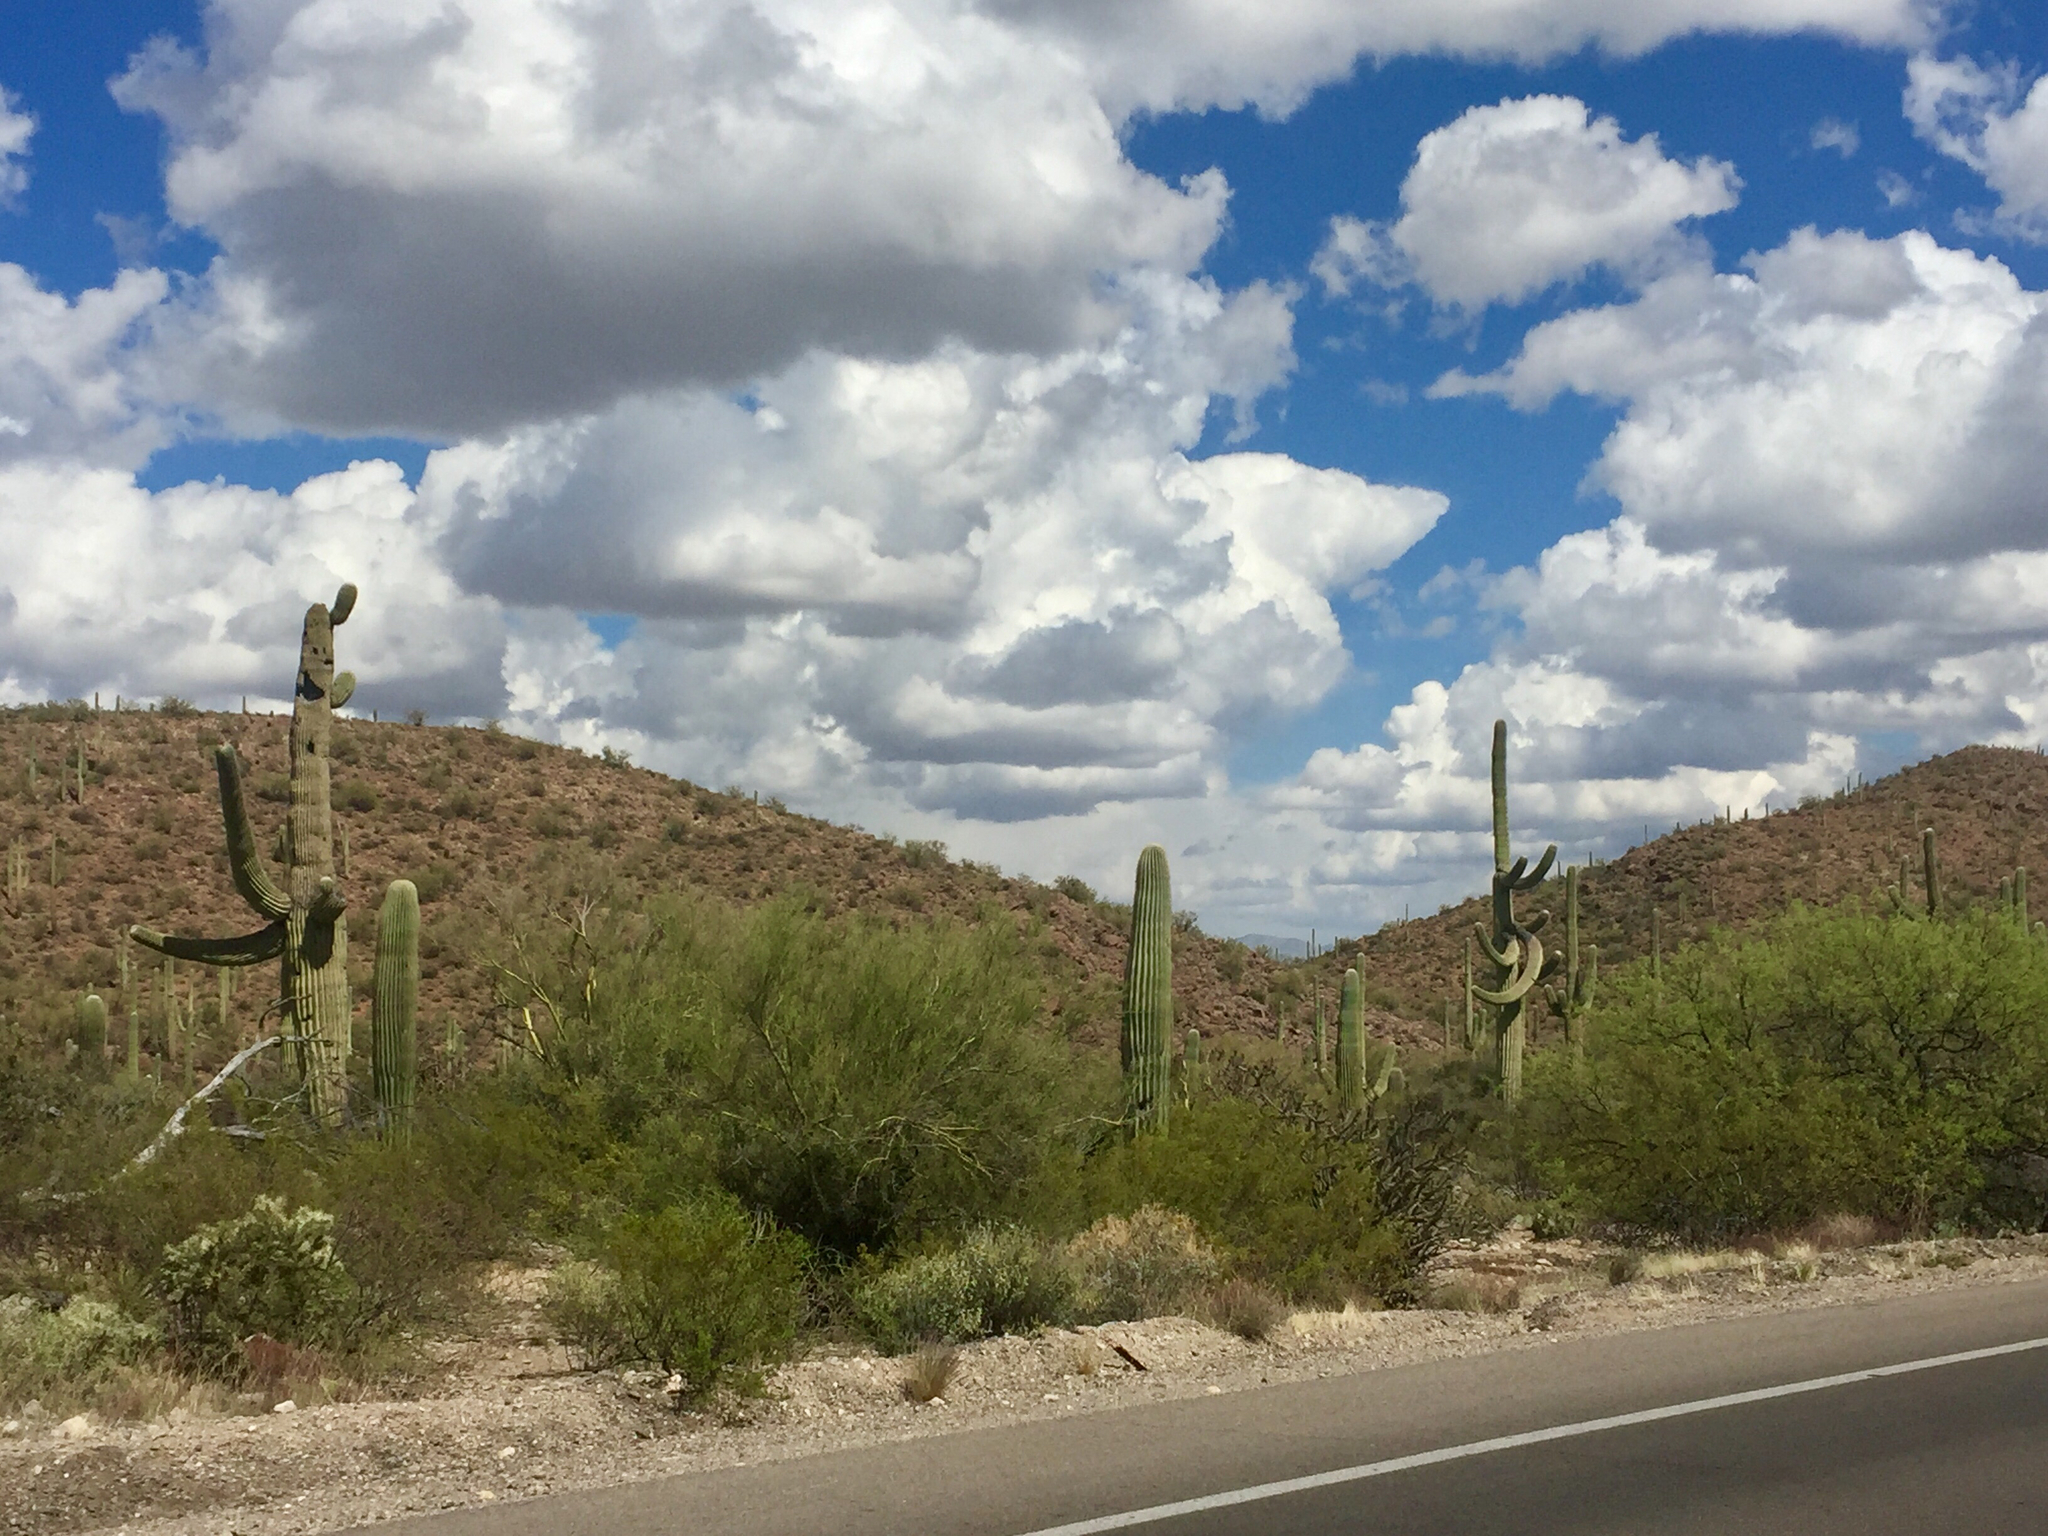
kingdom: Plantae
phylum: Tracheophyta
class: Magnoliopsida
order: Caryophyllales
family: Cactaceae
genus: Carnegiea
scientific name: Carnegiea gigantea
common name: Saguaro
